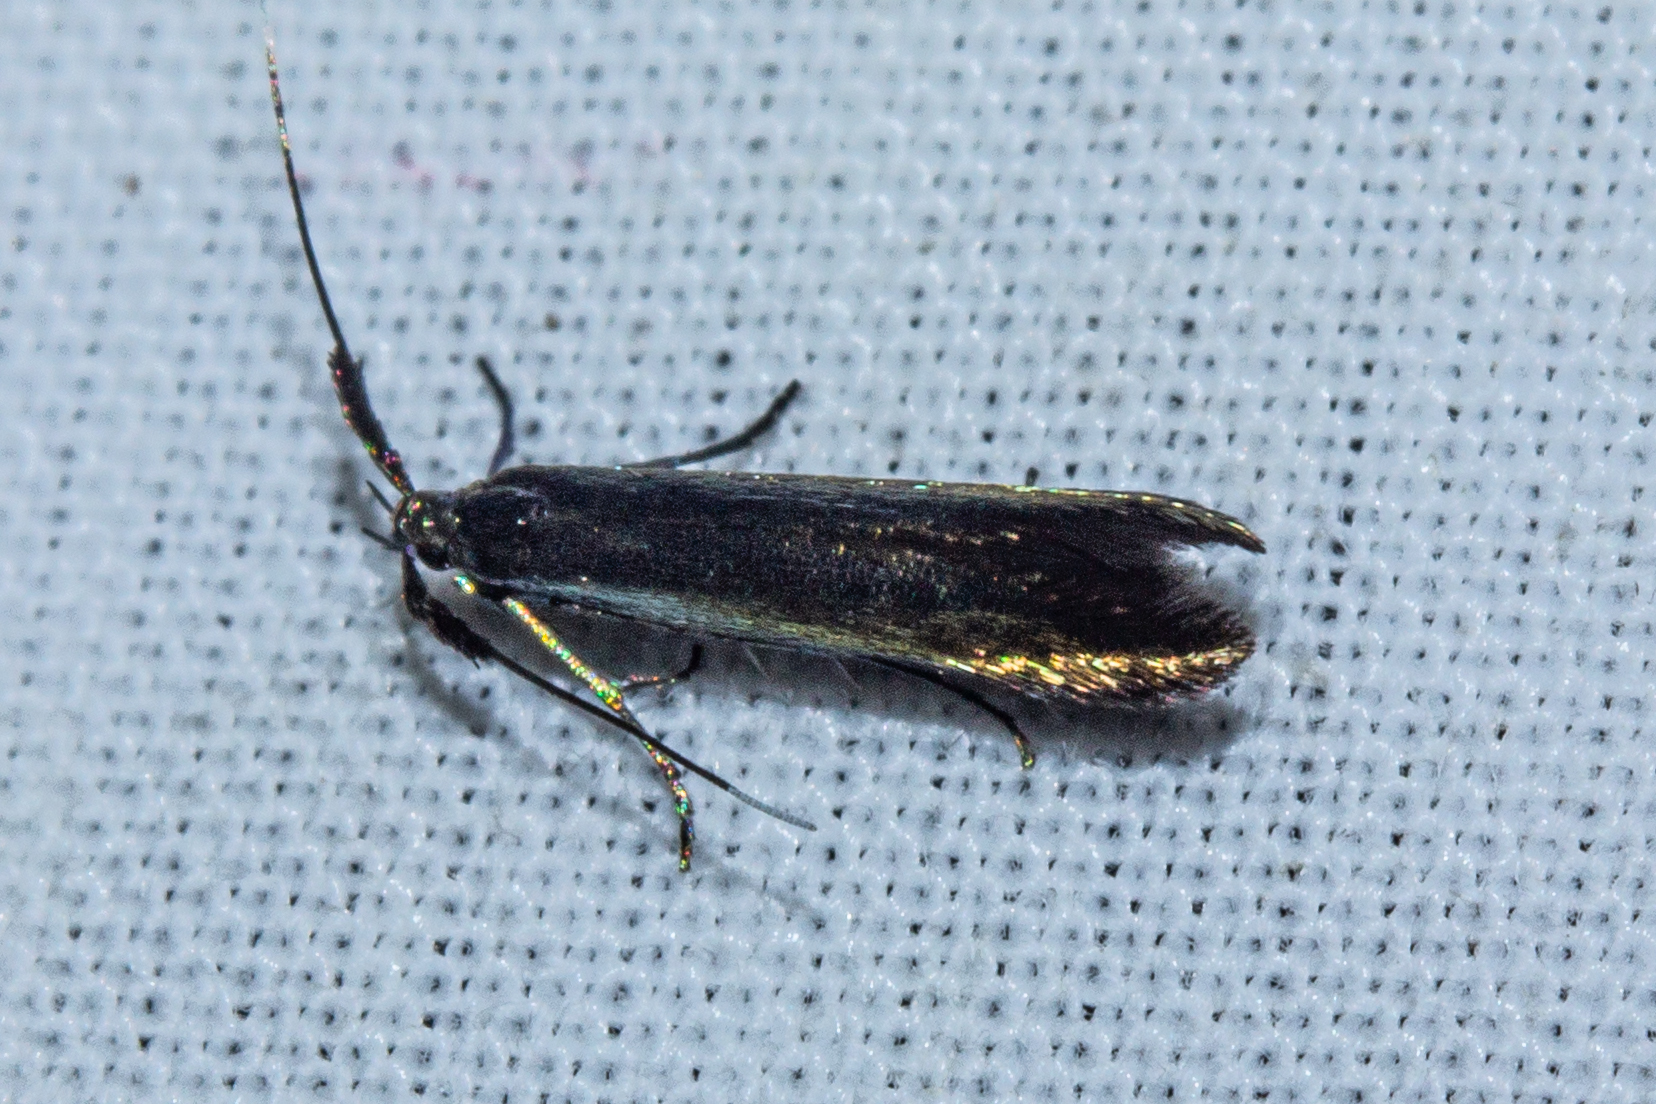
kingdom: Animalia
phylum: Arthropoda
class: Insecta
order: Lepidoptera
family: Coleophoridae
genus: Coleophora
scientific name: Coleophora deauratella
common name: Red-clover case-bearer
